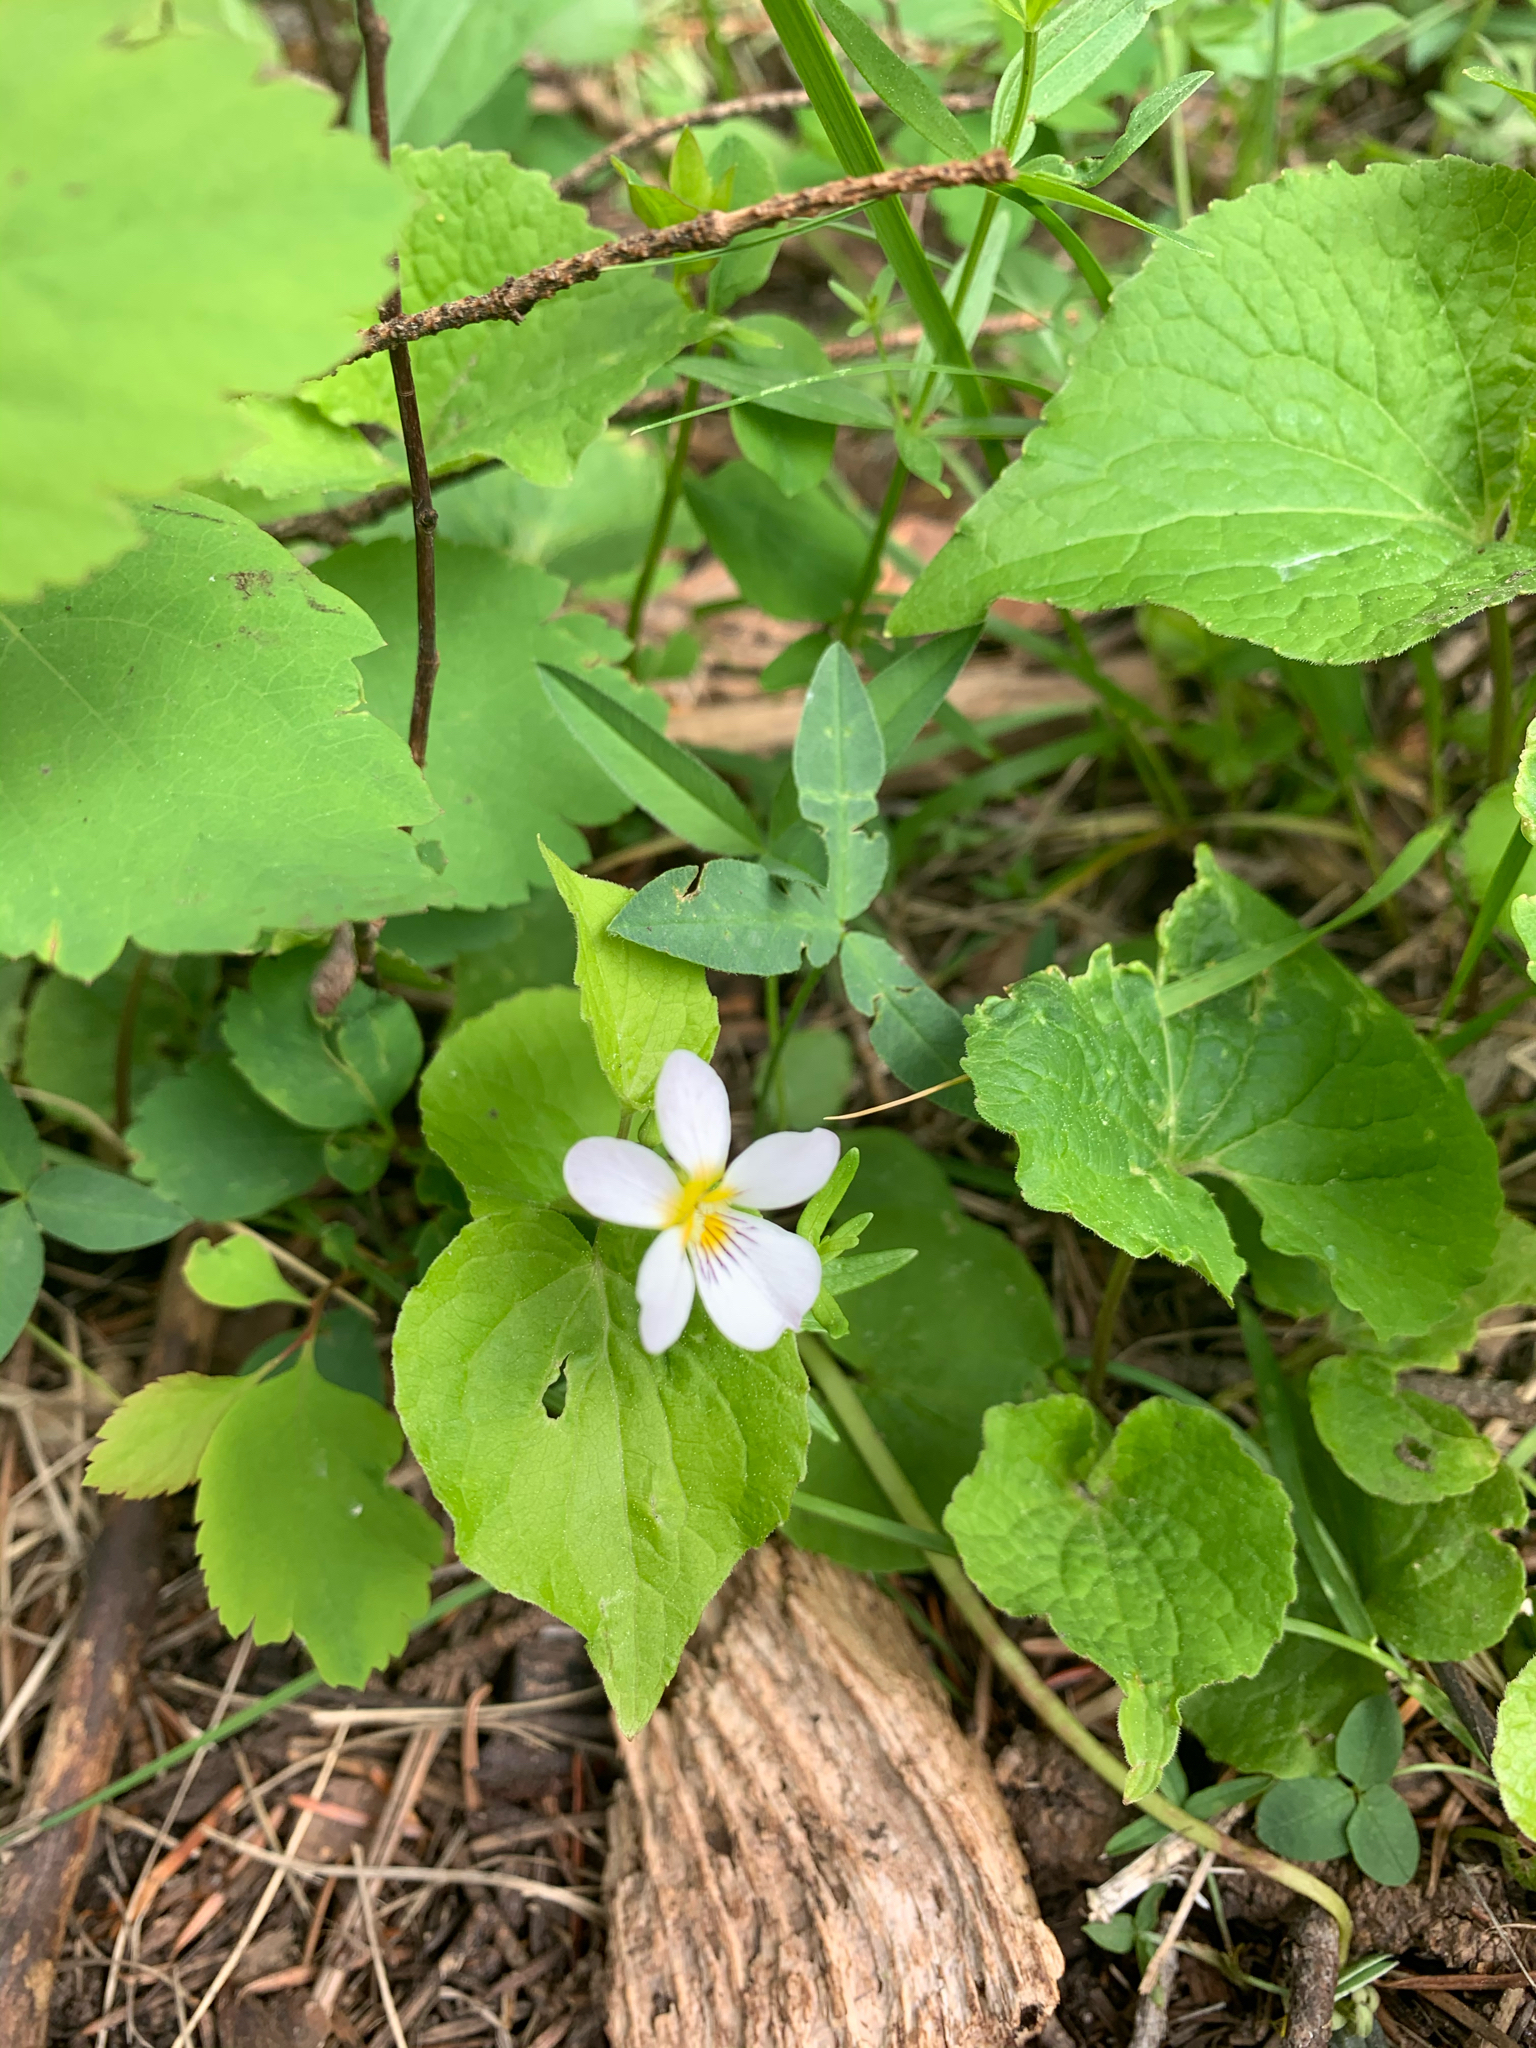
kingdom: Plantae
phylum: Tracheophyta
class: Magnoliopsida
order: Malpighiales
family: Violaceae
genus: Viola
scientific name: Viola canadensis
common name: Canada violet
